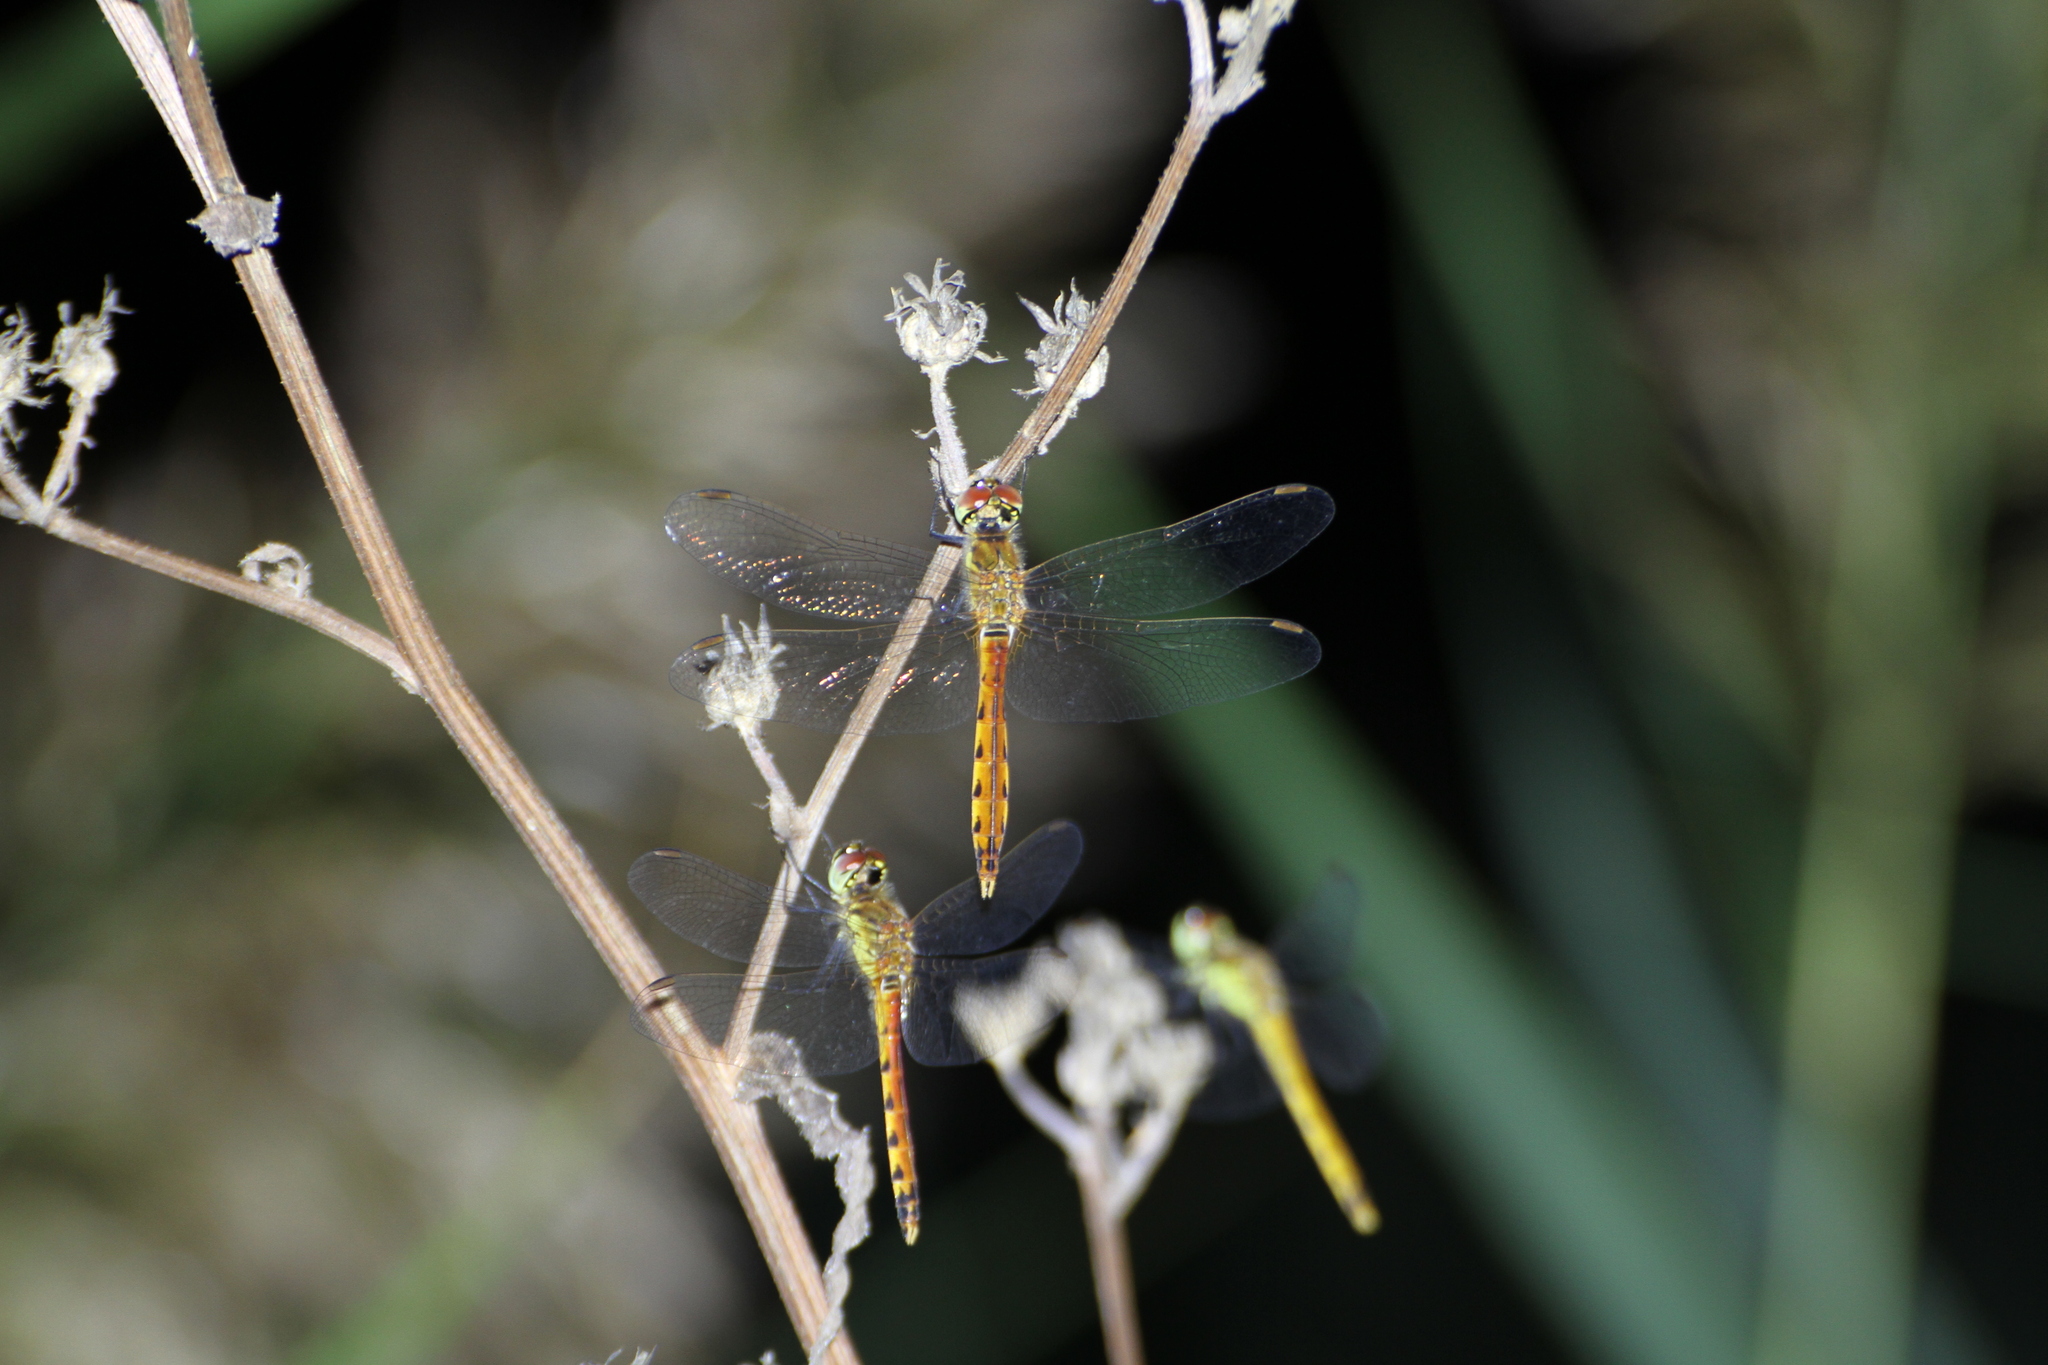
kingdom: Animalia
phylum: Arthropoda
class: Insecta
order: Odonata
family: Libellulidae
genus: Sympetrum
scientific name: Sympetrum depressiusculum
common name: Spotted darter
